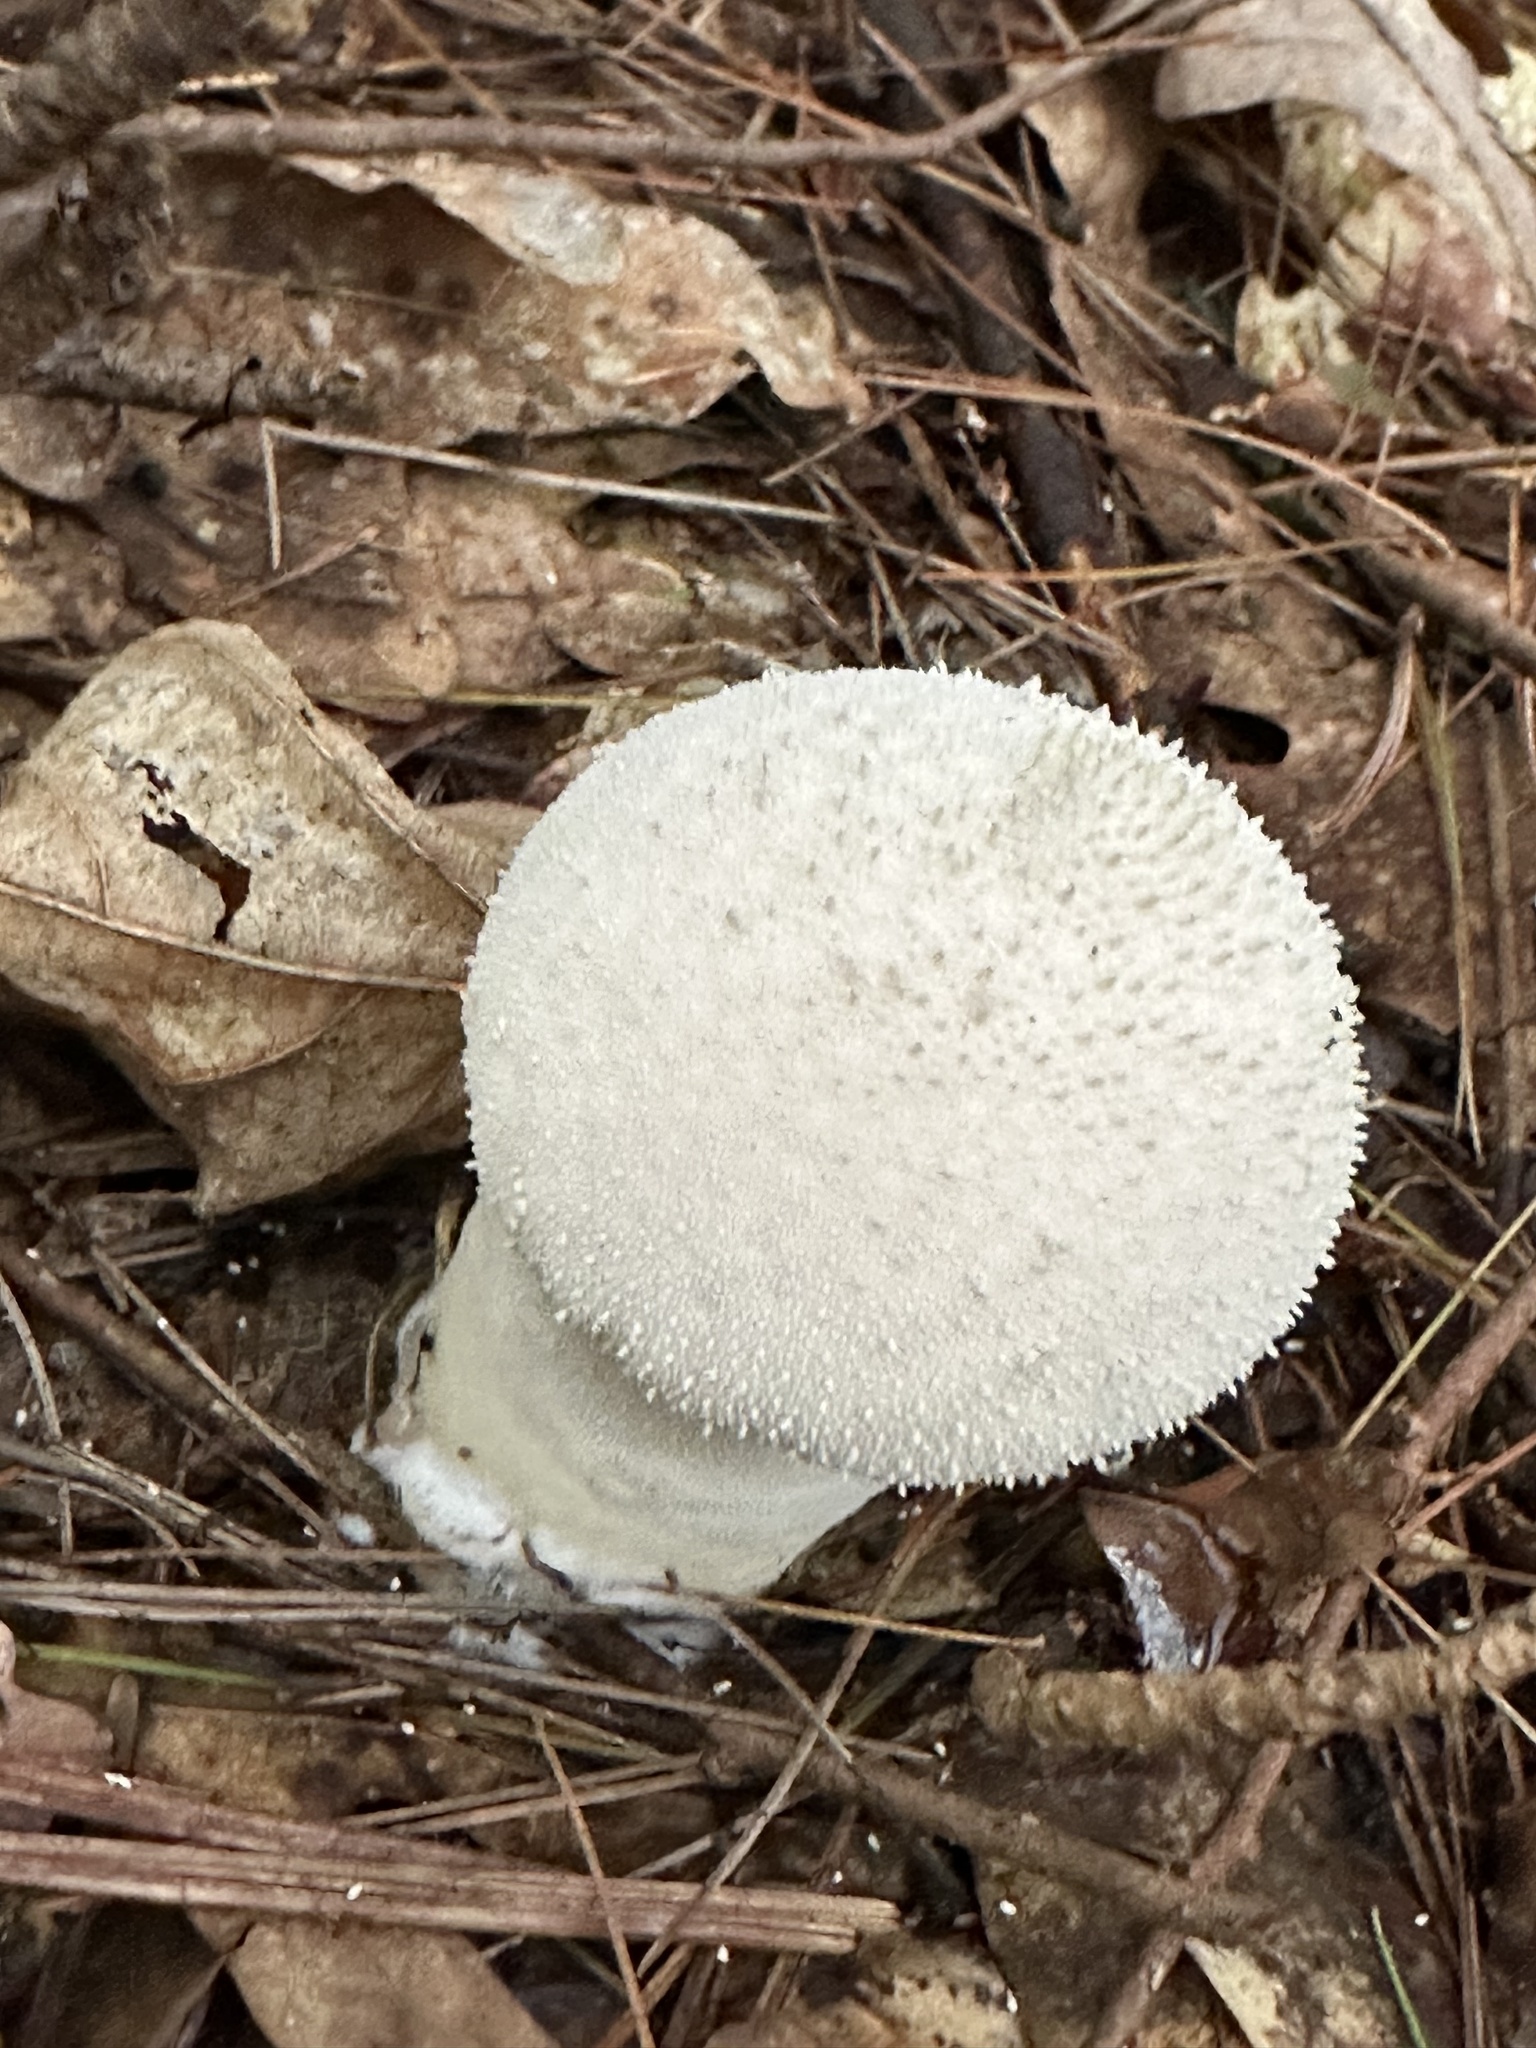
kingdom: Fungi
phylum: Basidiomycota
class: Agaricomycetes
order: Agaricales
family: Lycoperdaceae
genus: Lycoperdon
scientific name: Lycoperdon perlatum
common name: Common puffball
